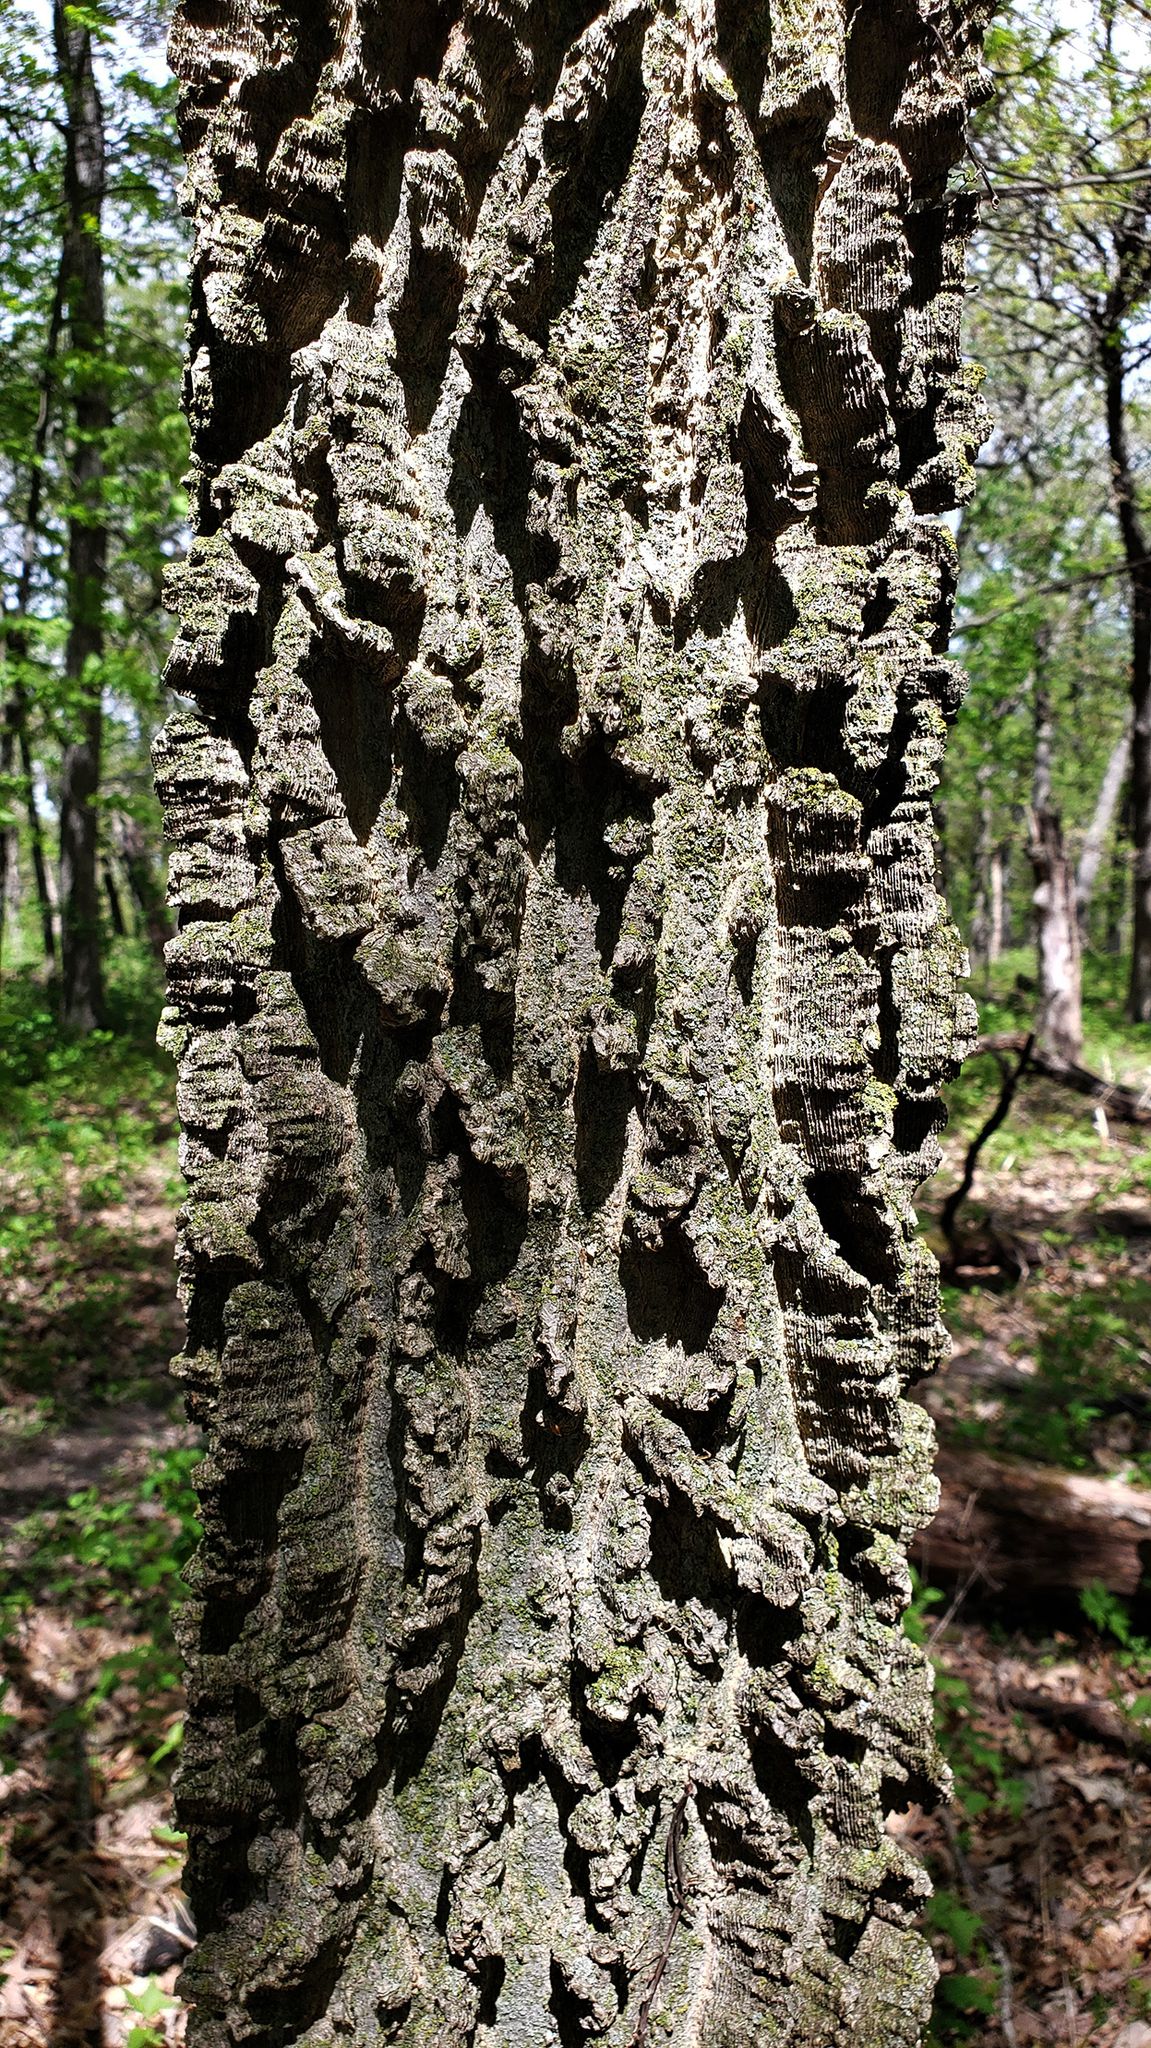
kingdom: Plantae
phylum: Tracheophyta
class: Magnoliopsida
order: Rosales
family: Cannabaceae
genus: Celtis
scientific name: Celtis occidentalis
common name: Common hackberry
